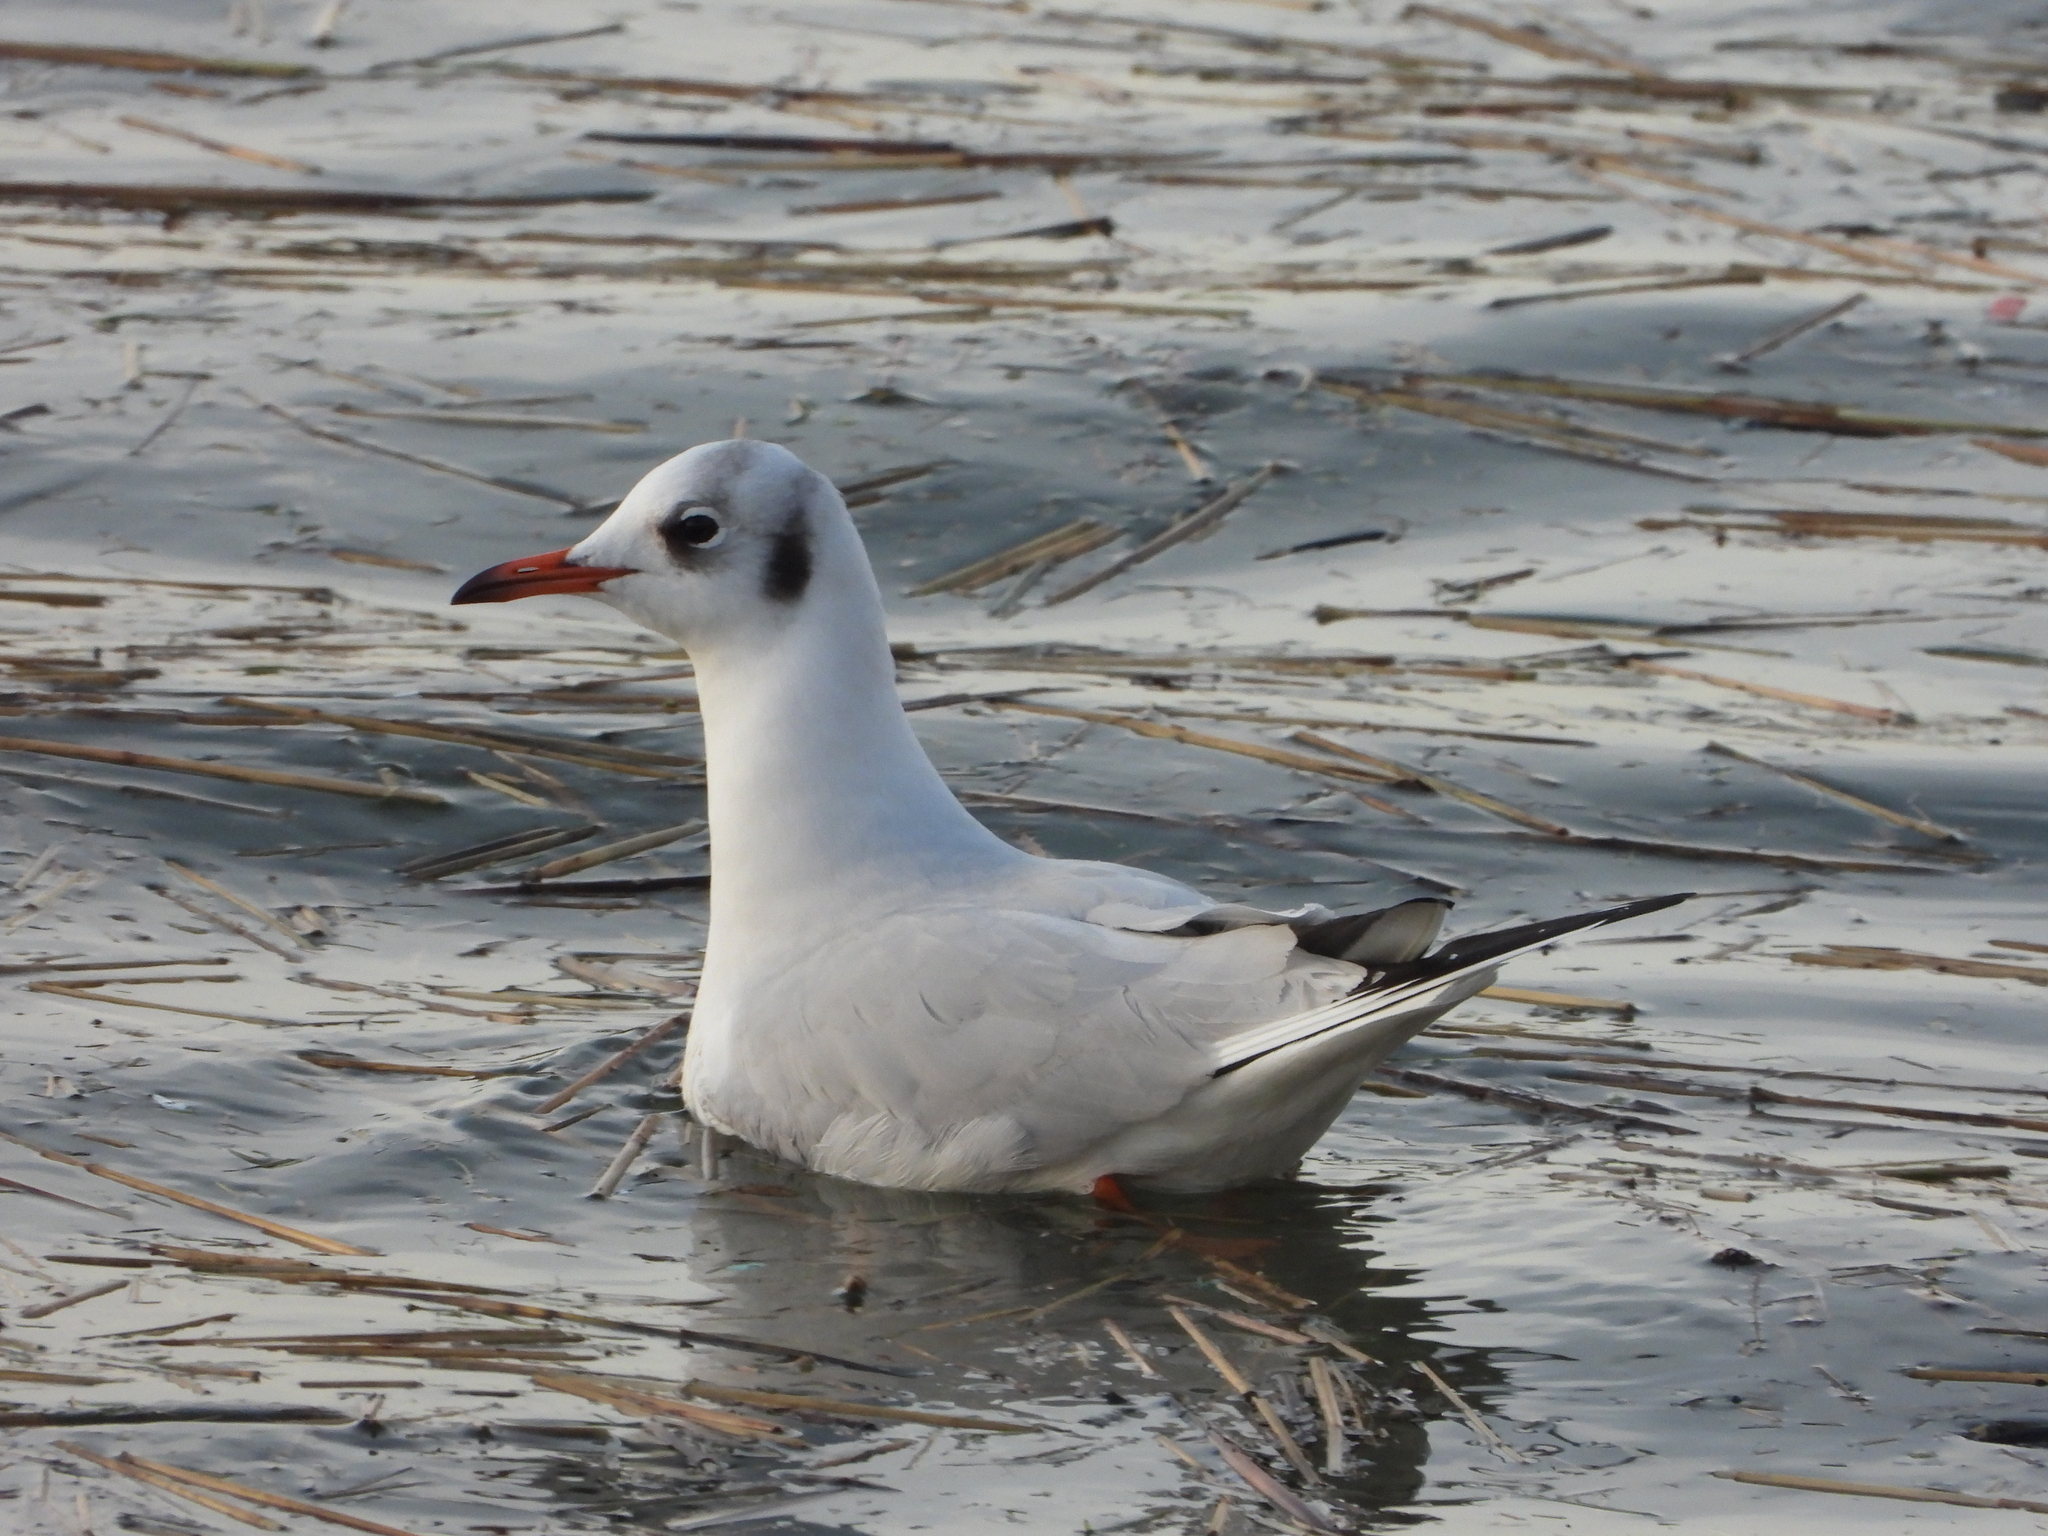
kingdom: Animalia
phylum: Chordata
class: Aves
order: Charadriiformes
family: Laridae
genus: Chroicocephalus
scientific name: Chroicocephalus ridibundus
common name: Black-headed gull
